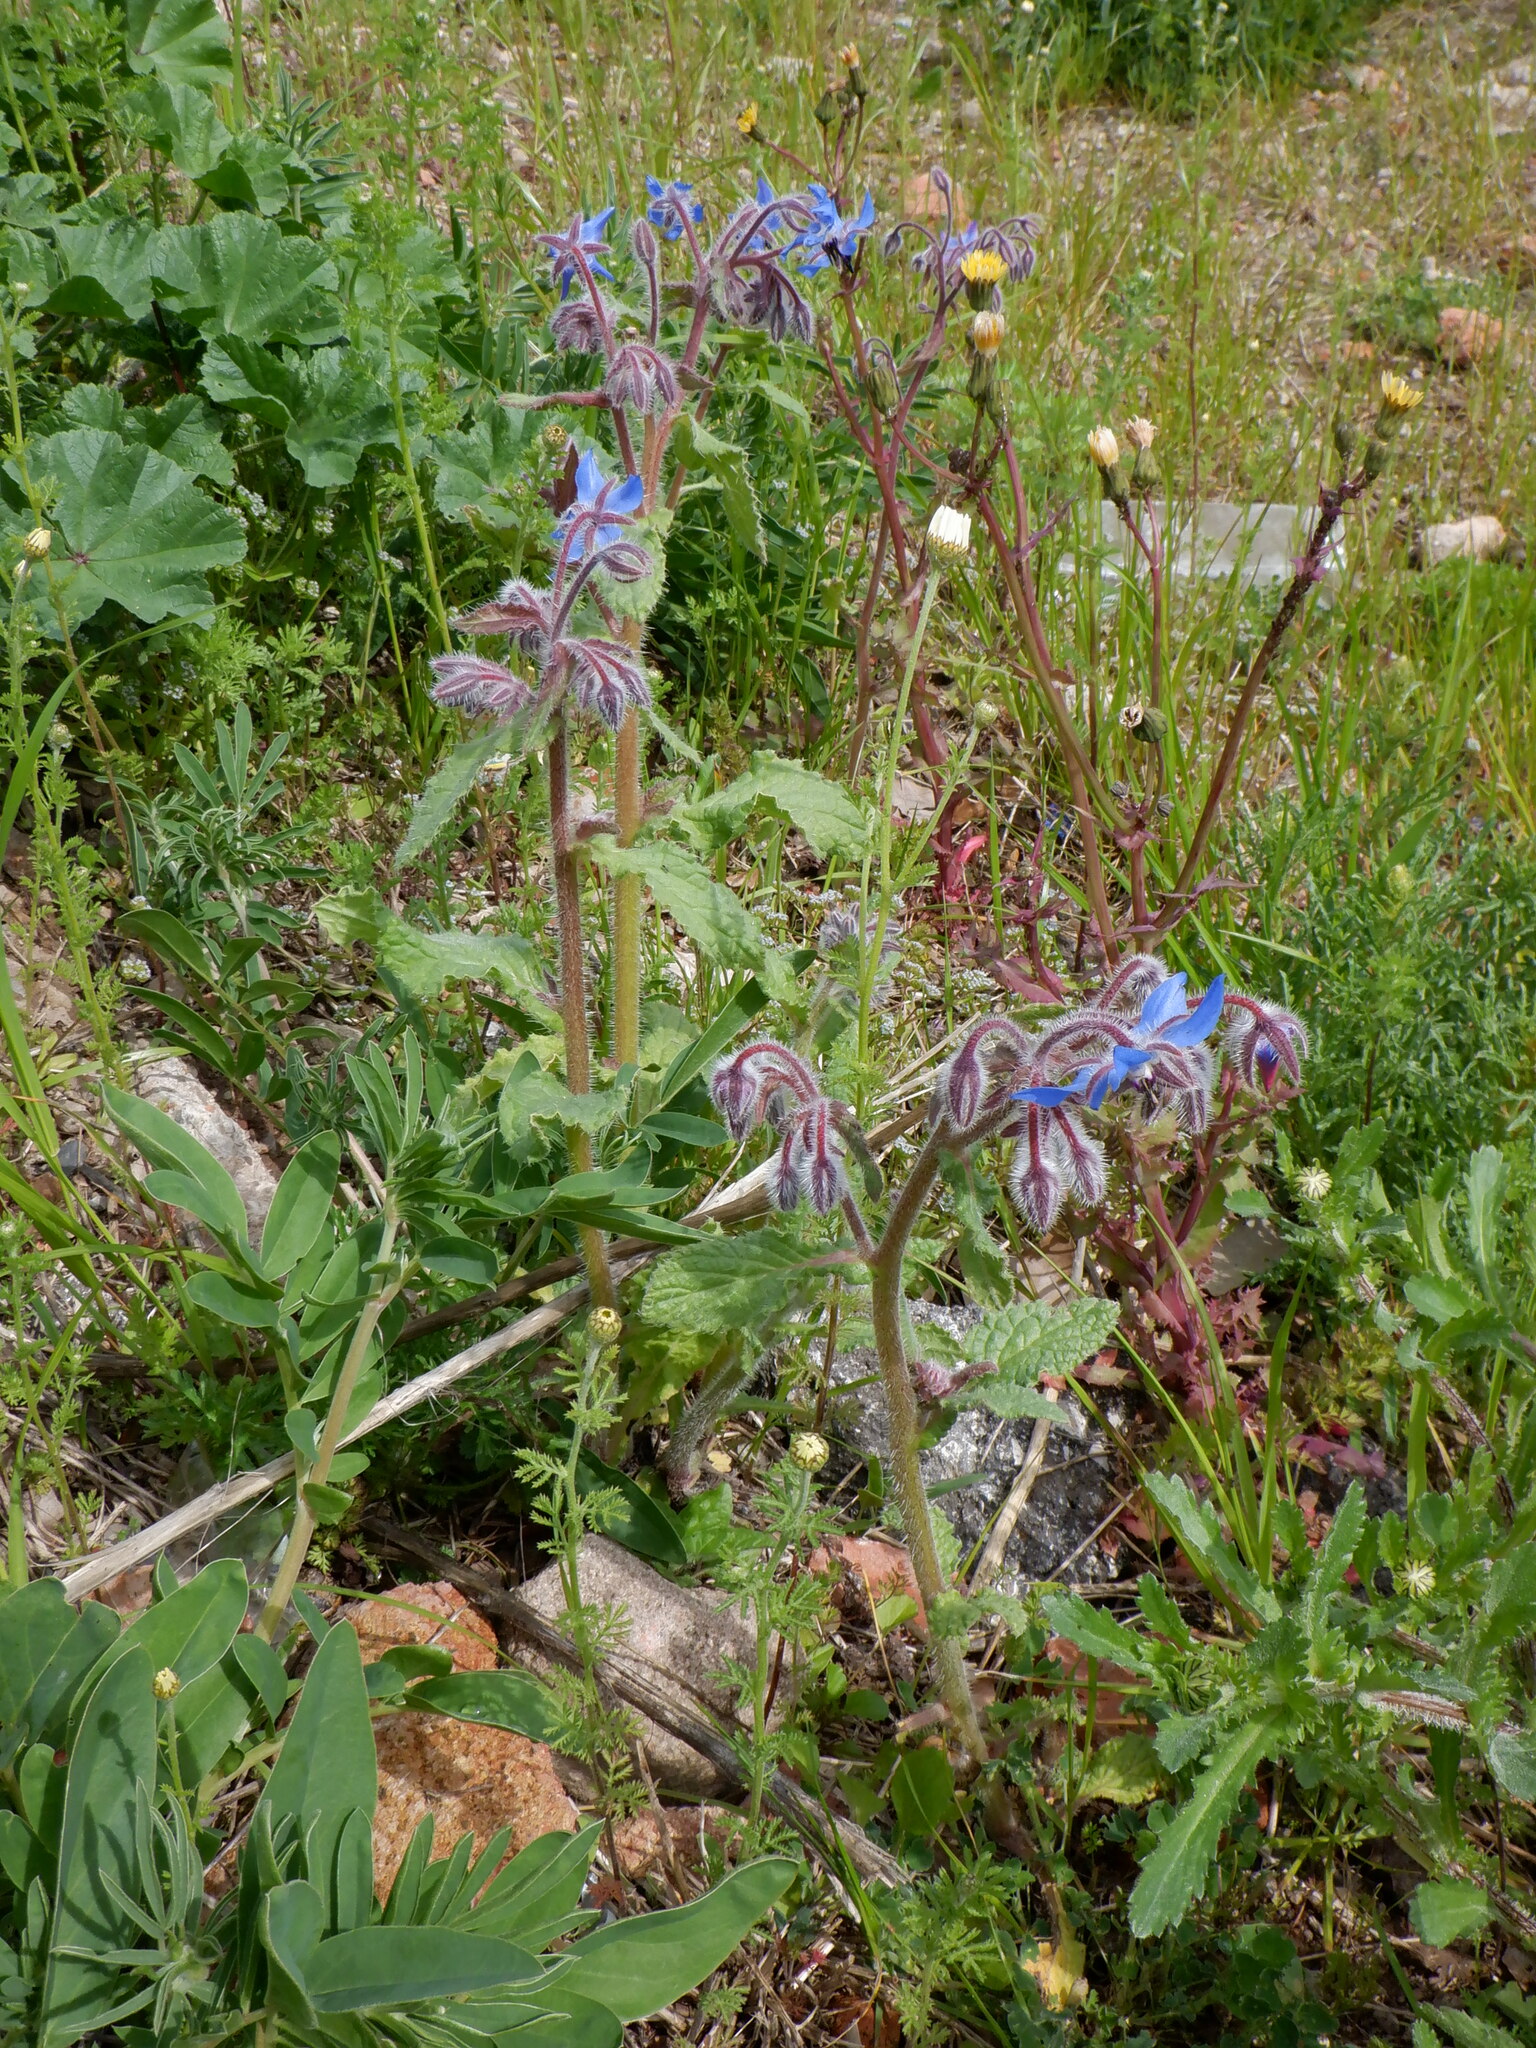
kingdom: Plantae
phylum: Tracheophyta
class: Magnoliopsida
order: Boraginales
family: Boraginaceae
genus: Borago
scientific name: Borago officinalis
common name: Borage
